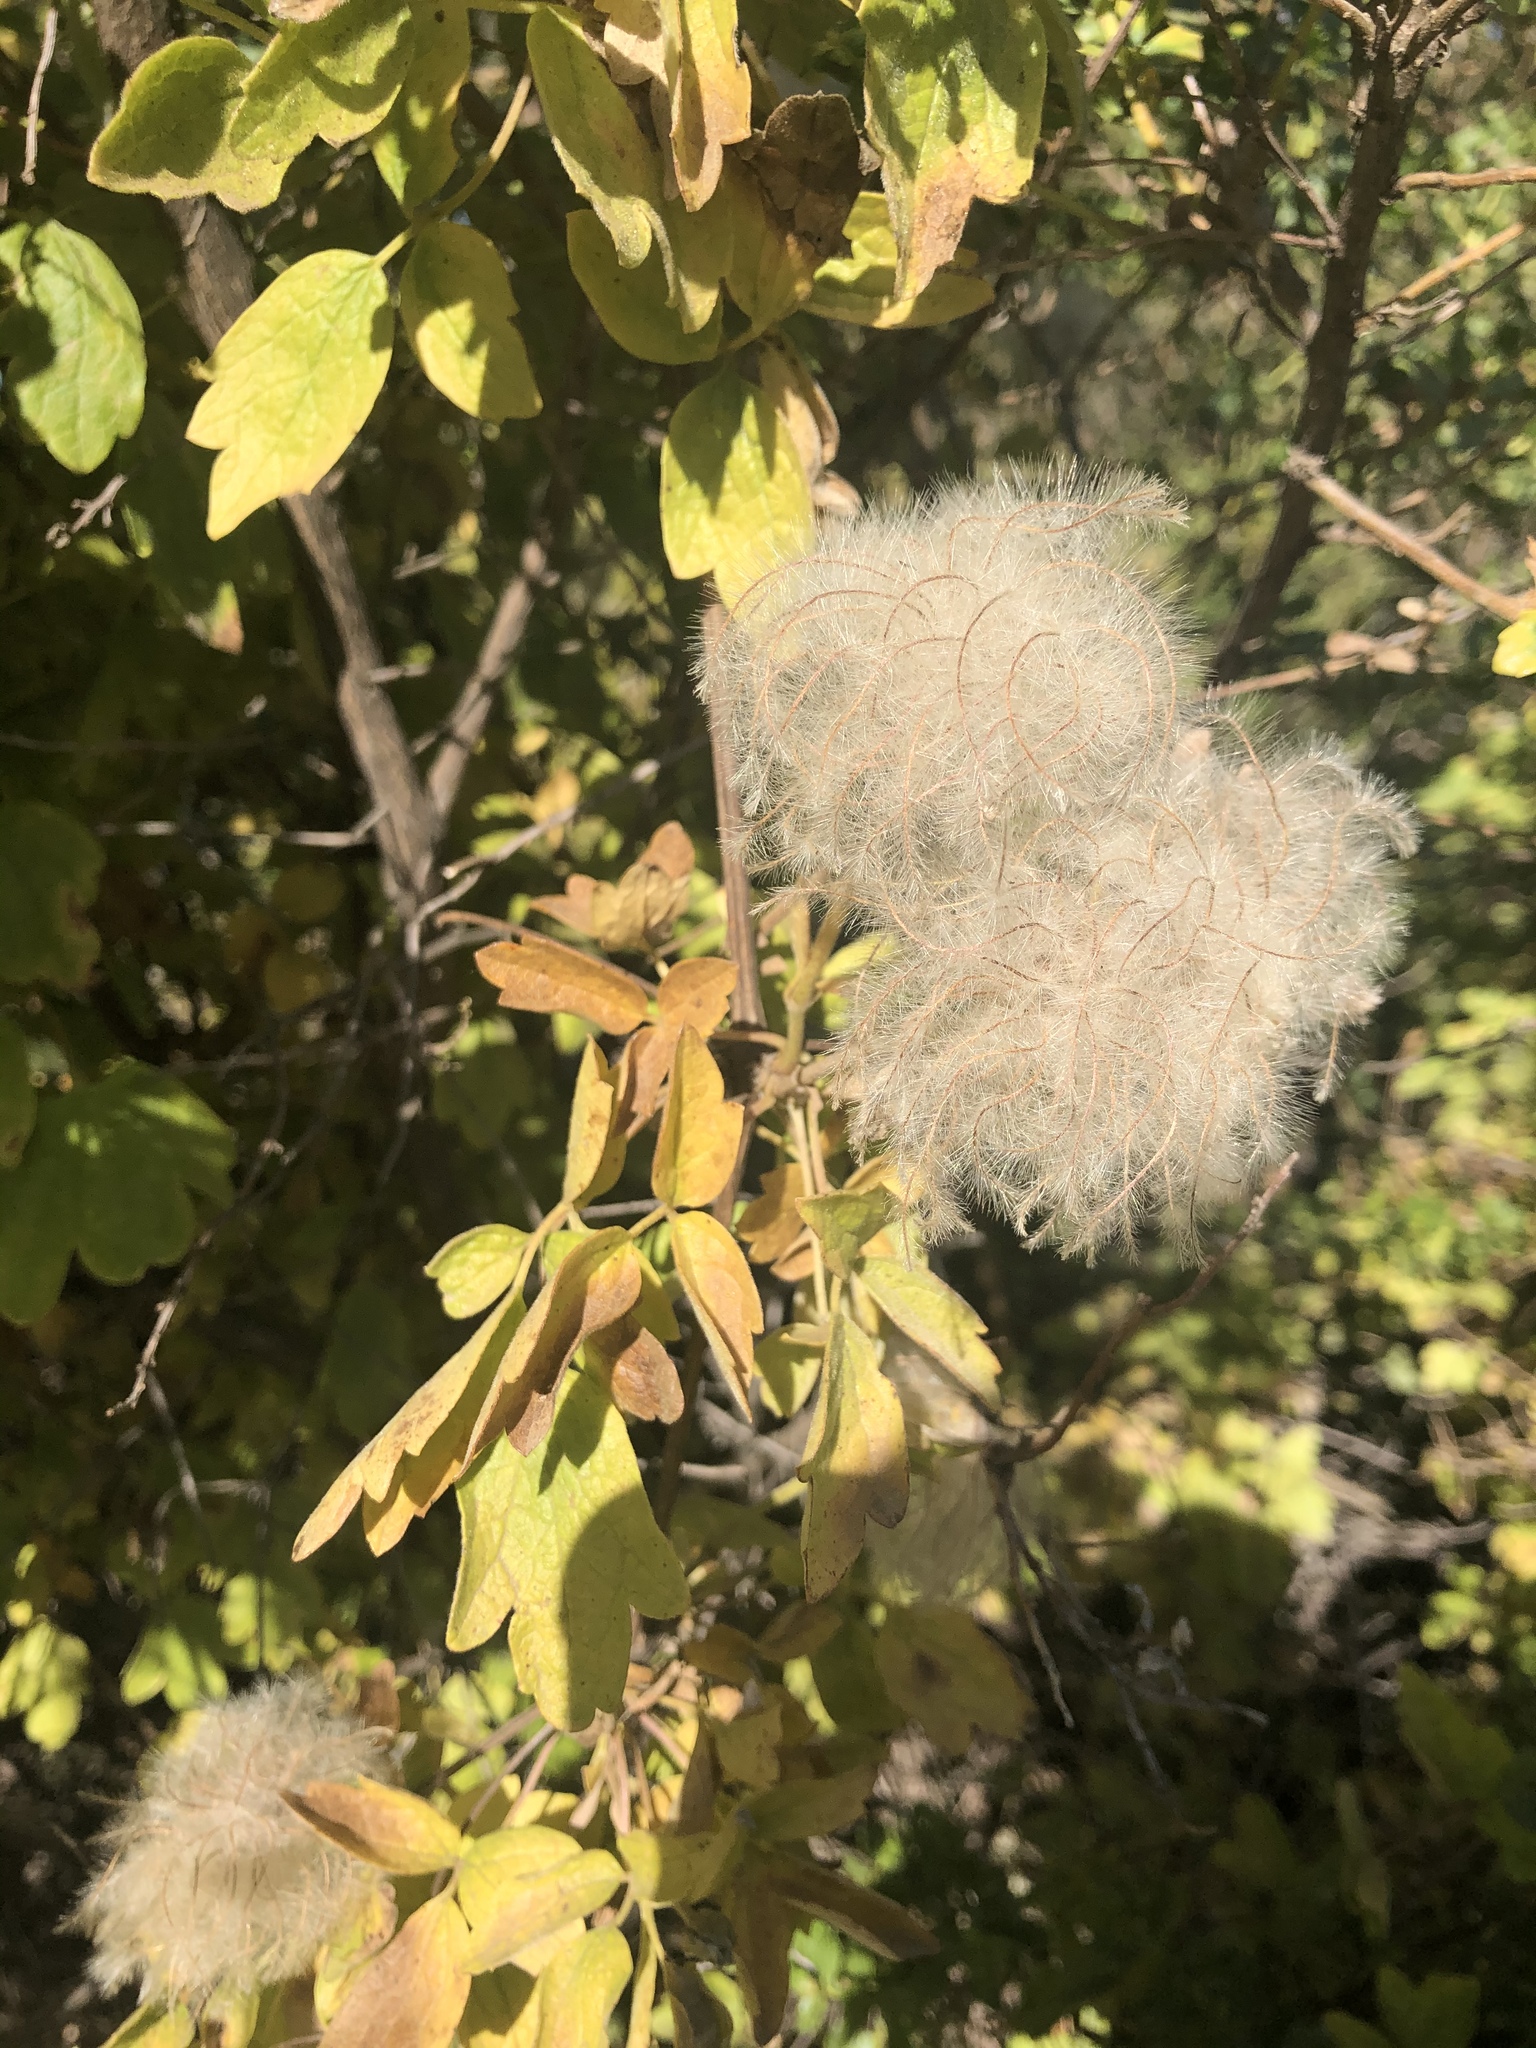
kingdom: Plantae
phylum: Tracheophyta
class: Magnoliopsida
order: Ranunculales
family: Ranunculaceae
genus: Clematis
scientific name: Clematis lasiantha
